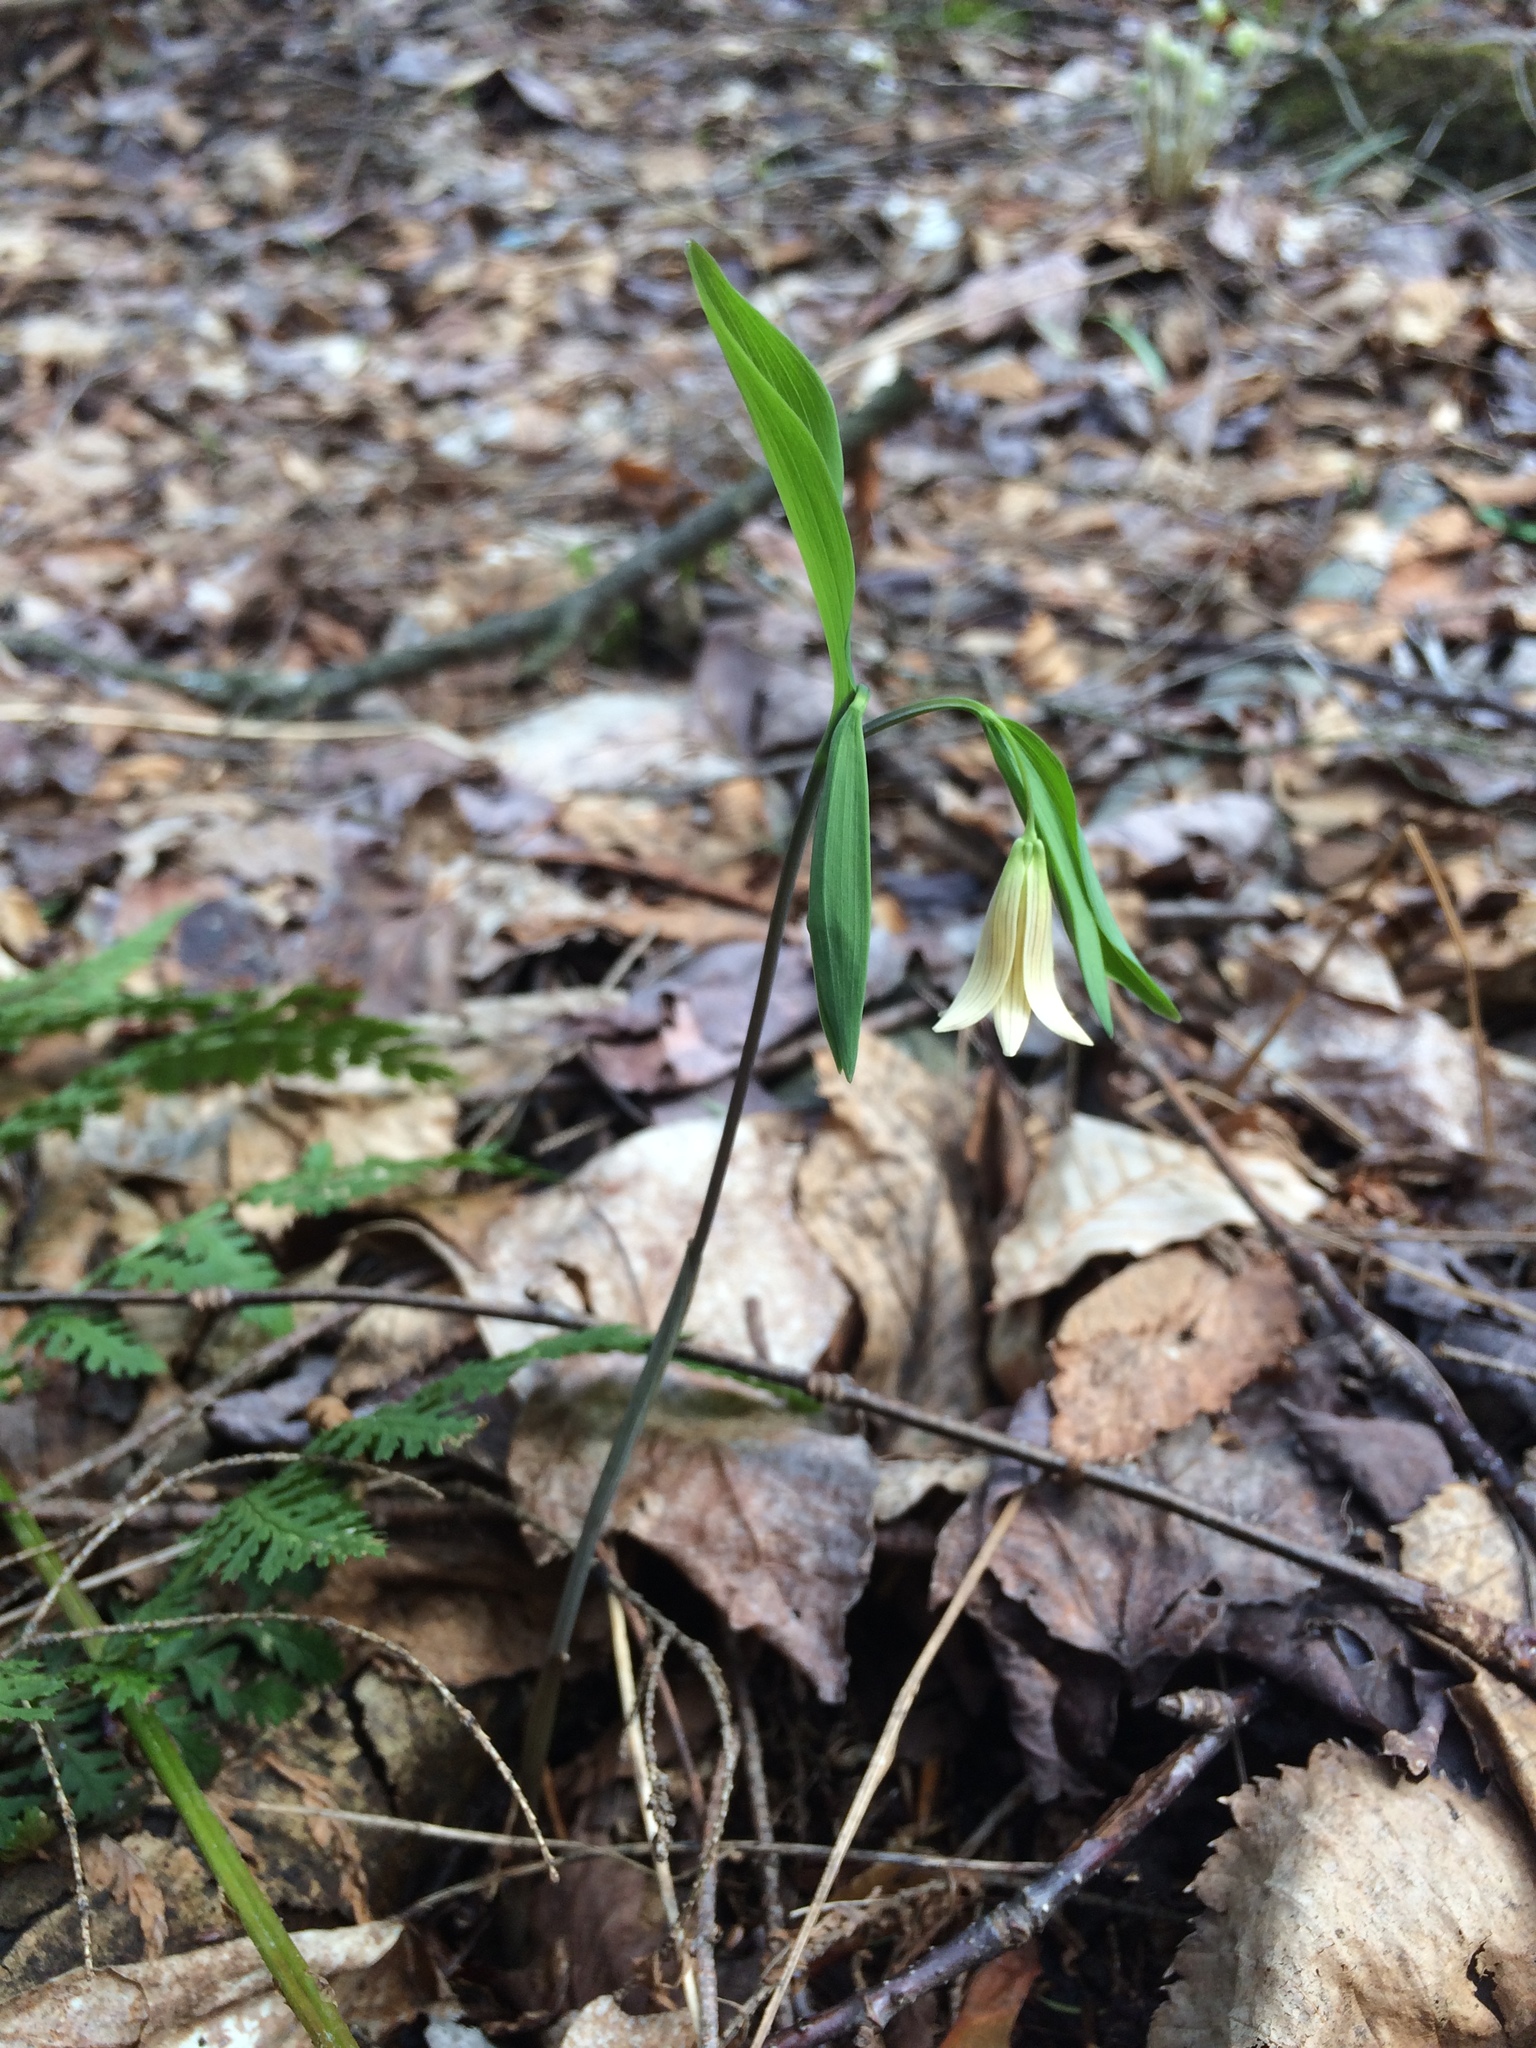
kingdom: Plantae
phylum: Tracheophyta
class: Liliopsida
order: Liliales
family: Colchicaceae
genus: Uvularia
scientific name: Uvularia sessilifolia
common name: Straw-lily
